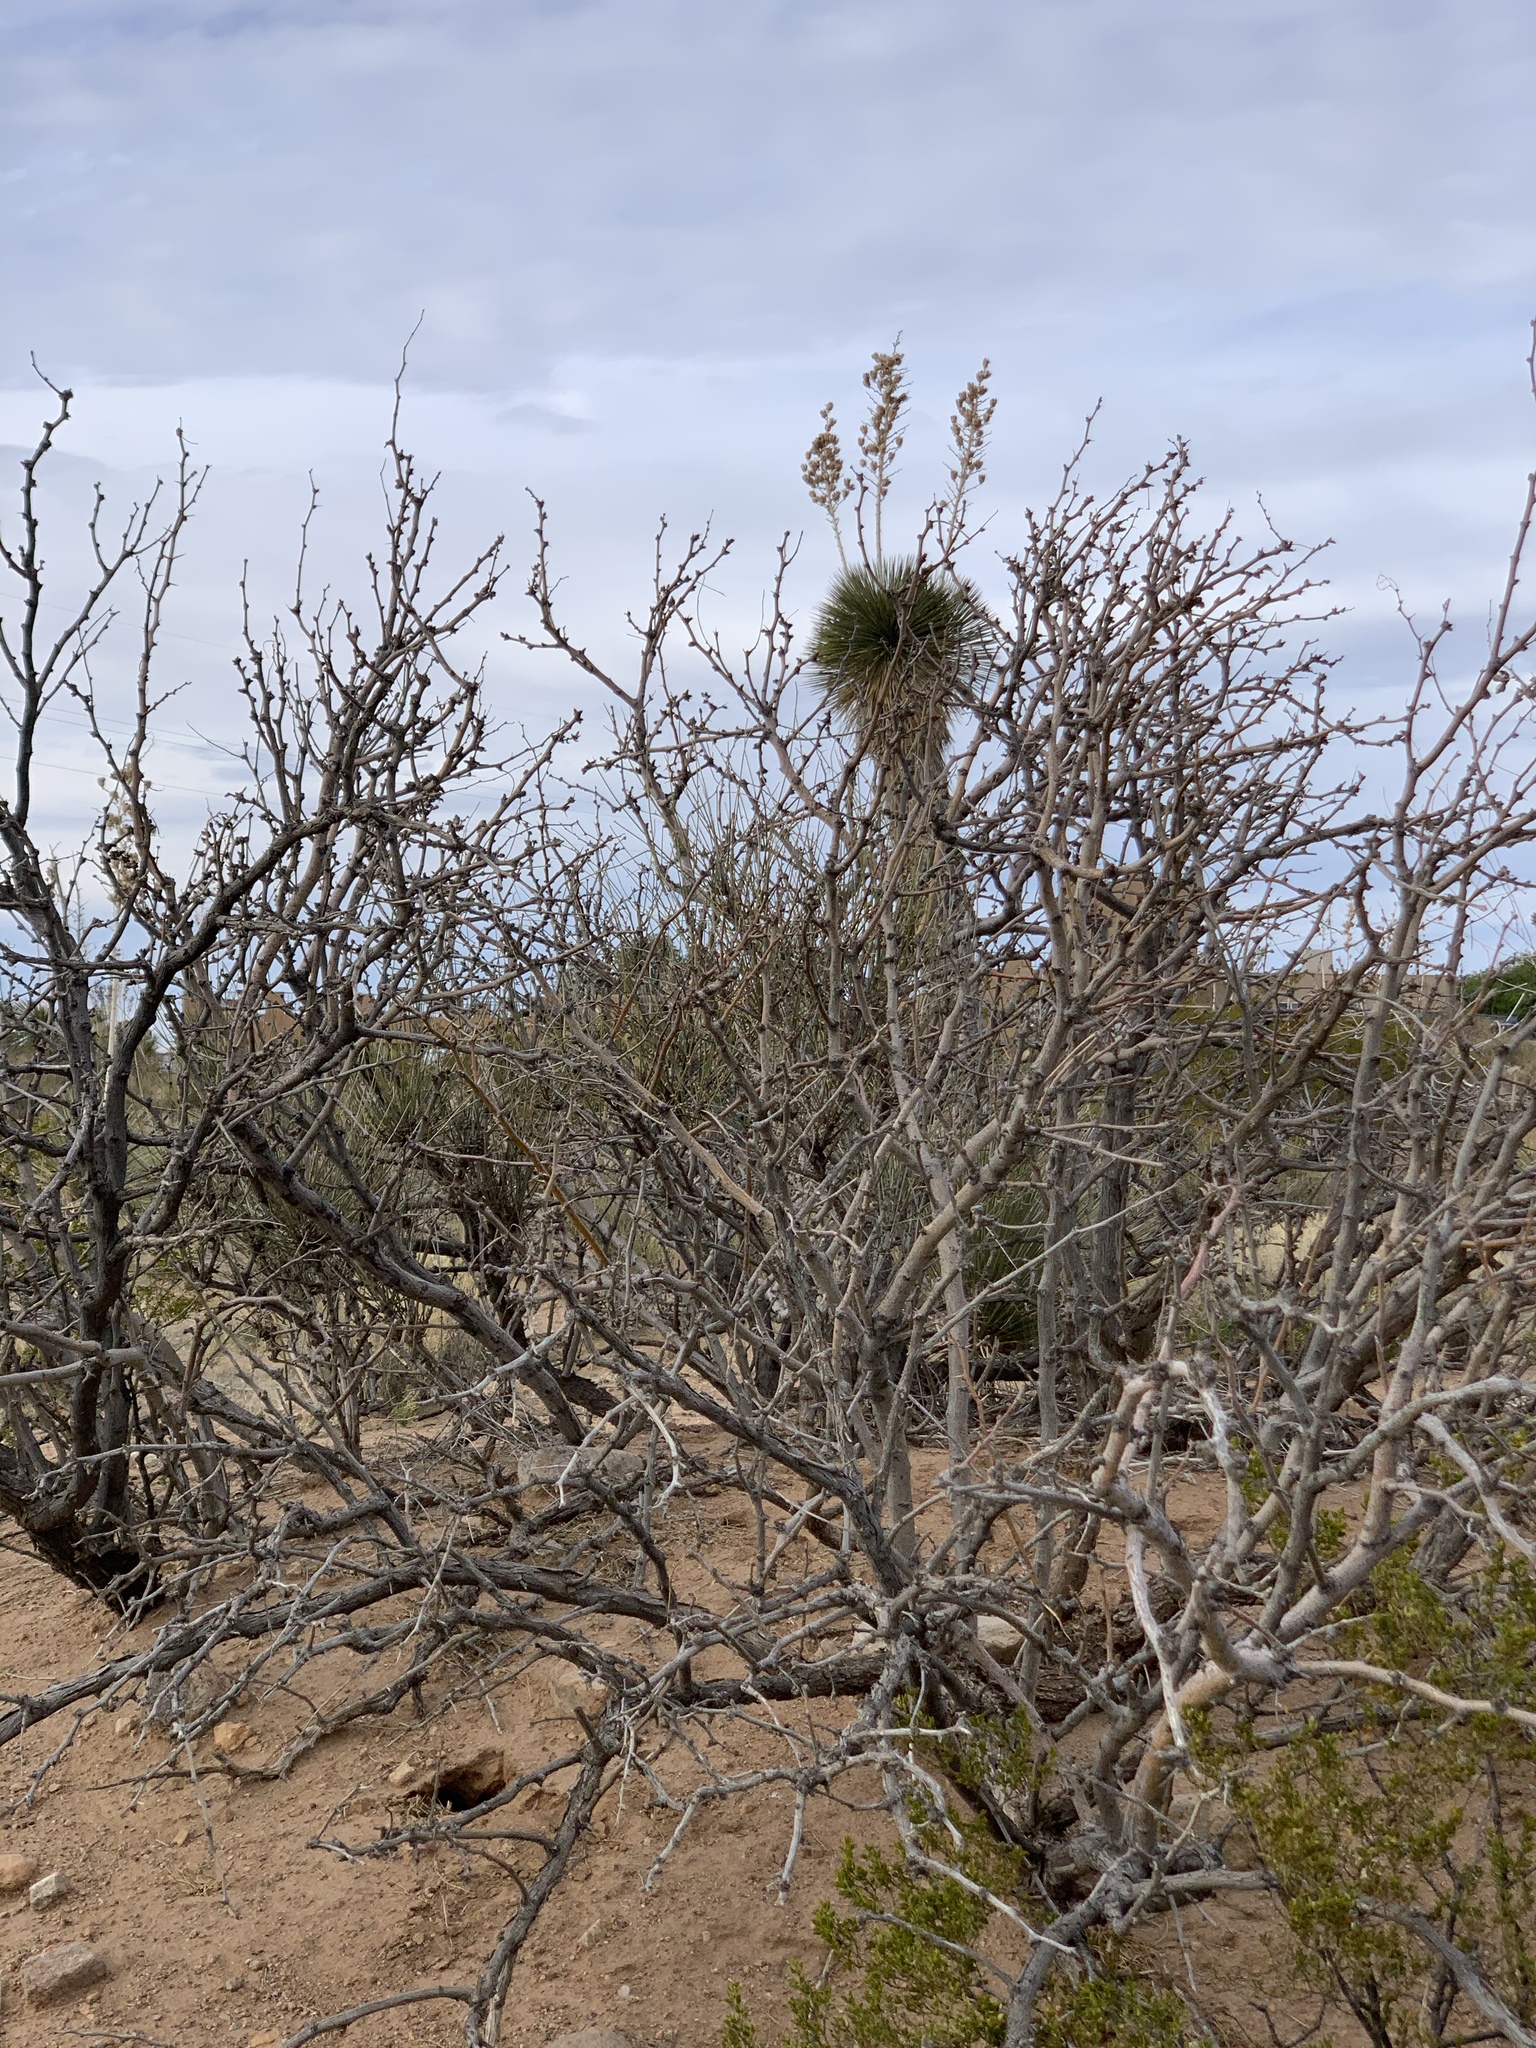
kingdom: Plantae
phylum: Tracheophyta
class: Magnoliopsida
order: Fabales
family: Fabaceae
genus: Prosopis
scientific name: Prosopis glandulosa
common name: Honey mesquite
